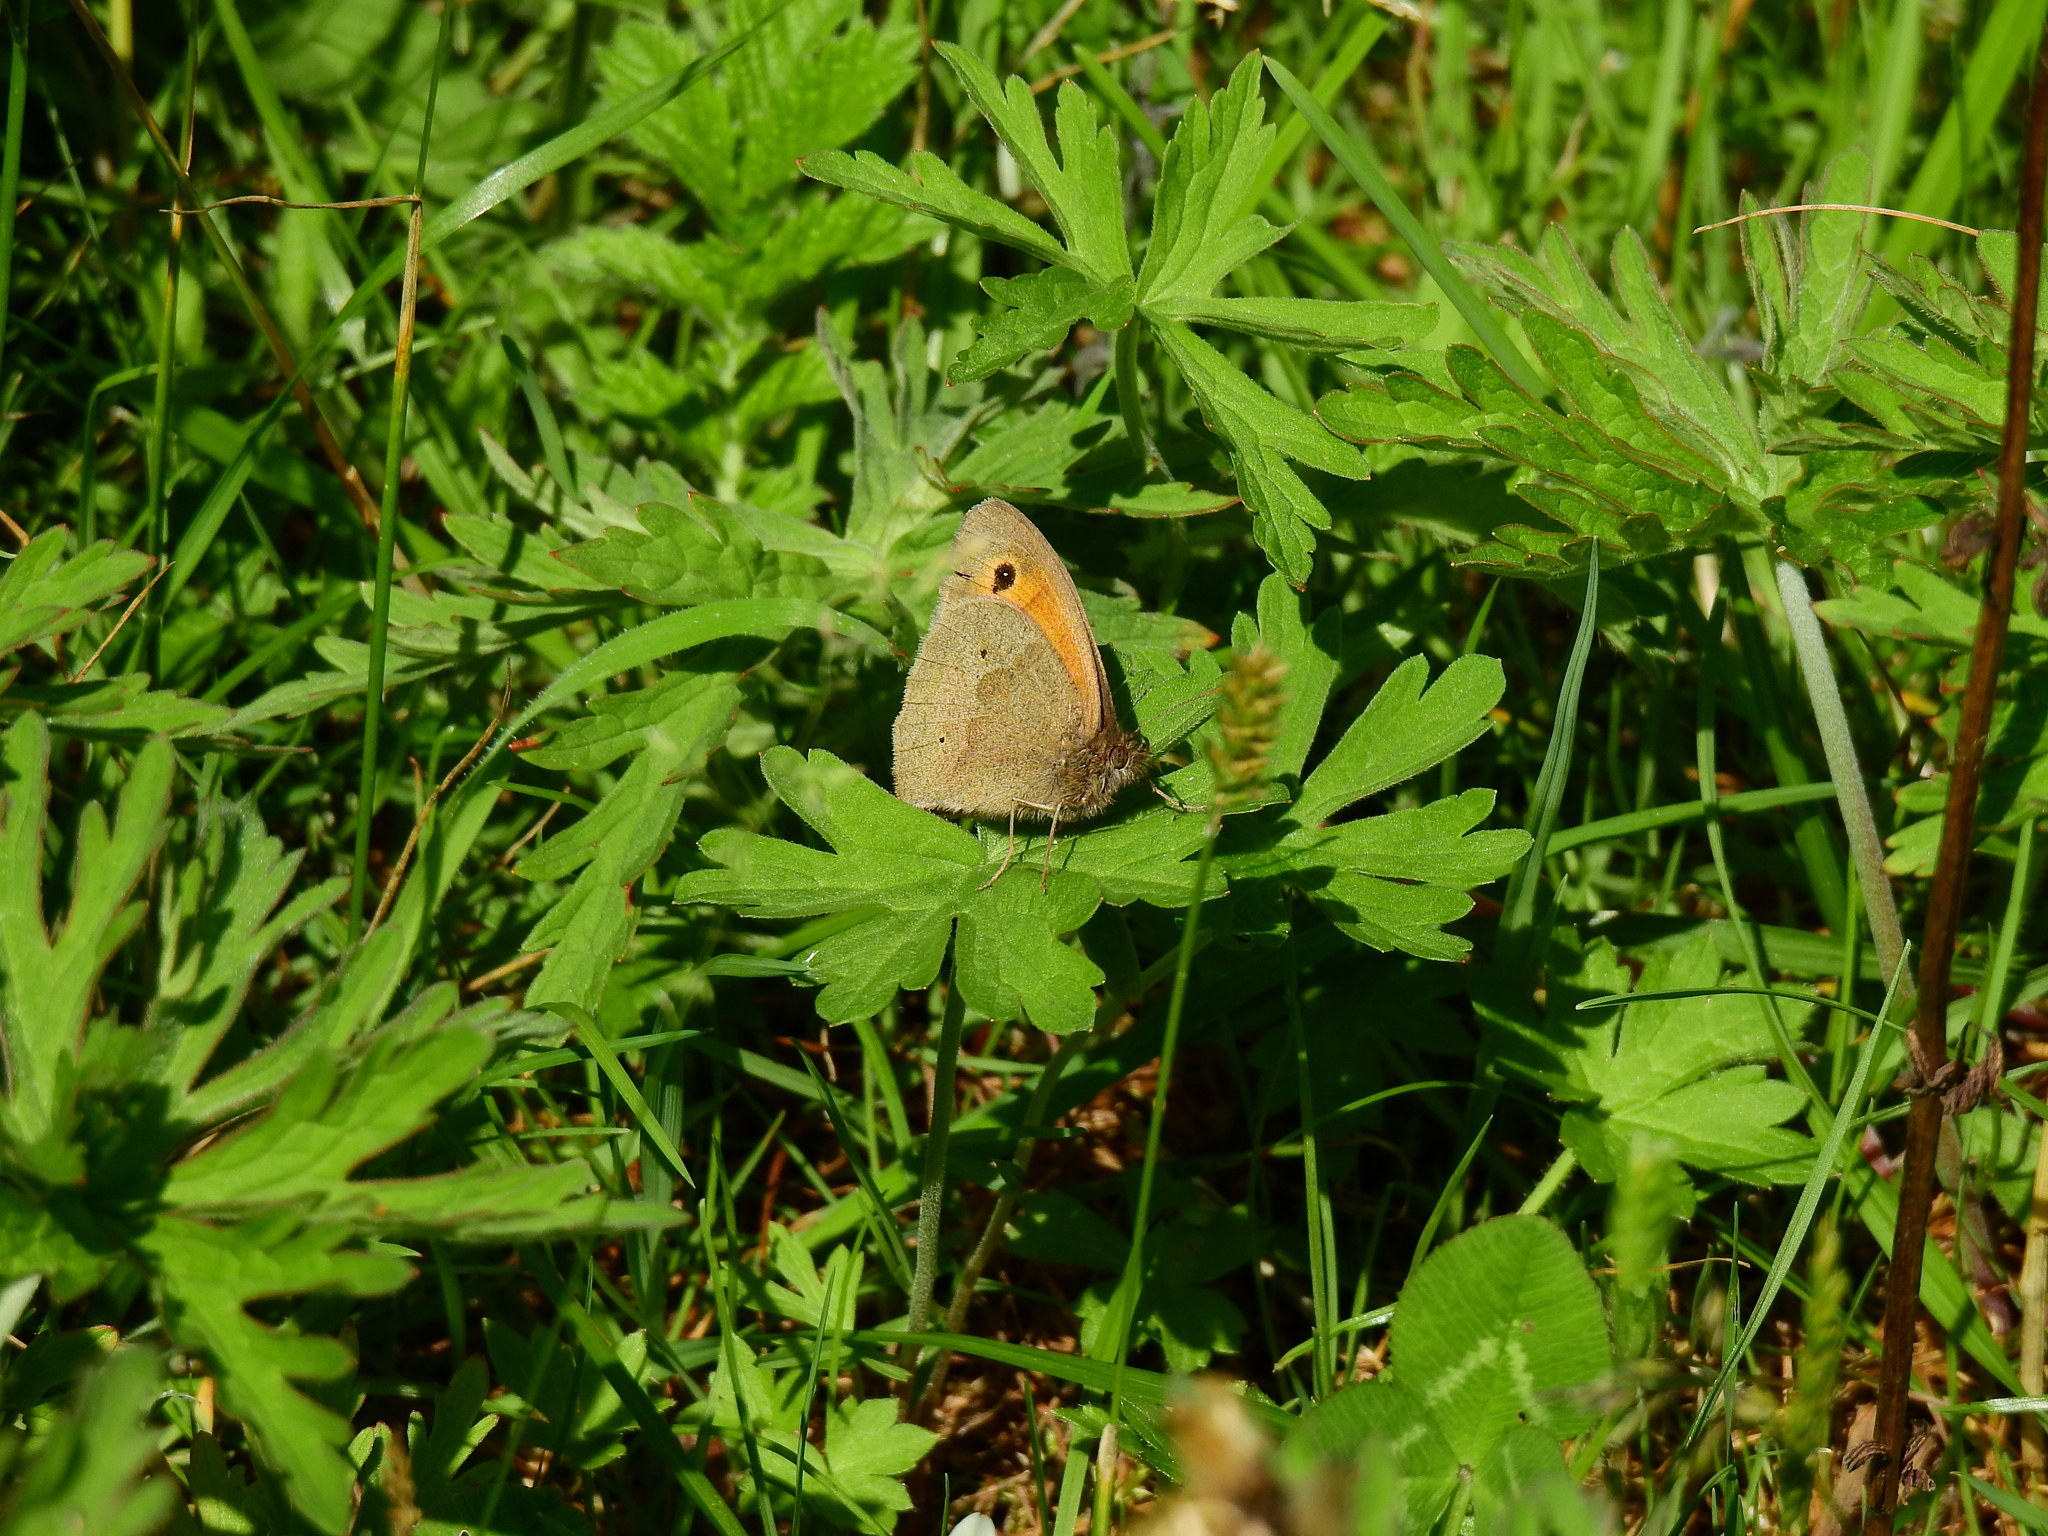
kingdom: Animalia
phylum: Arthropoda
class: Insecta
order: Lepidoptera
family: Nymphalidae
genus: Maniola
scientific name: Maniola jurtina
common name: Meadow brown
